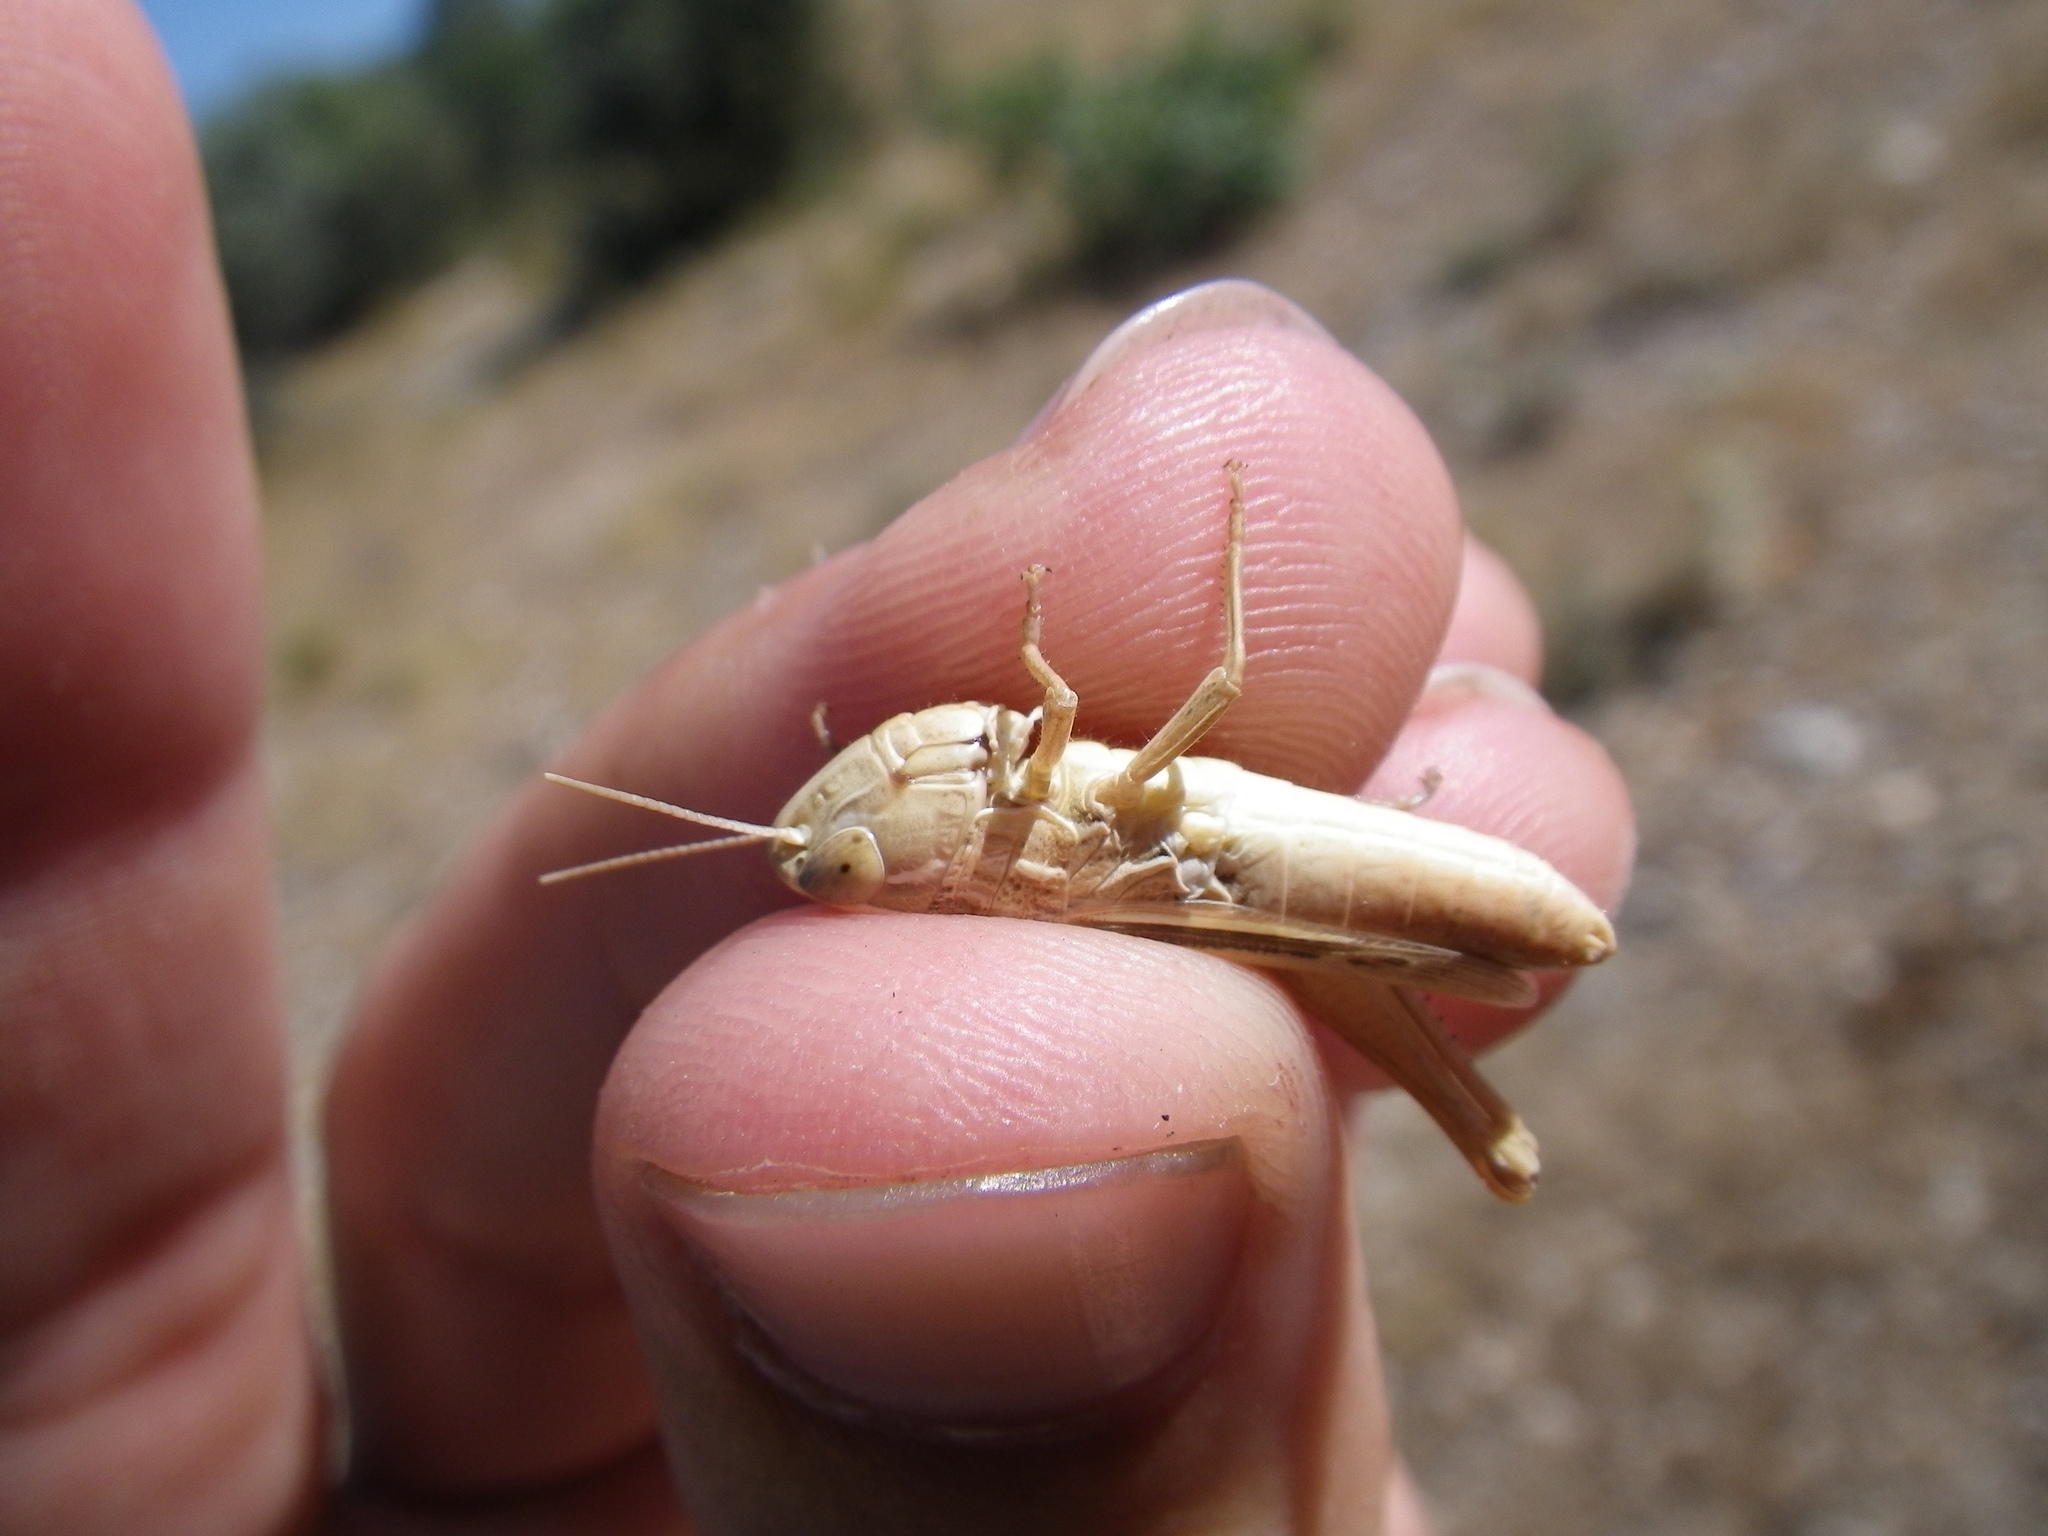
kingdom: Animalia
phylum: Arthropoda
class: Insecta
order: Orthoptera
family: Acrididae
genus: Euchorthippus
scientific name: Euchorthippus elegantulus
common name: Elegant straw grasshopper
